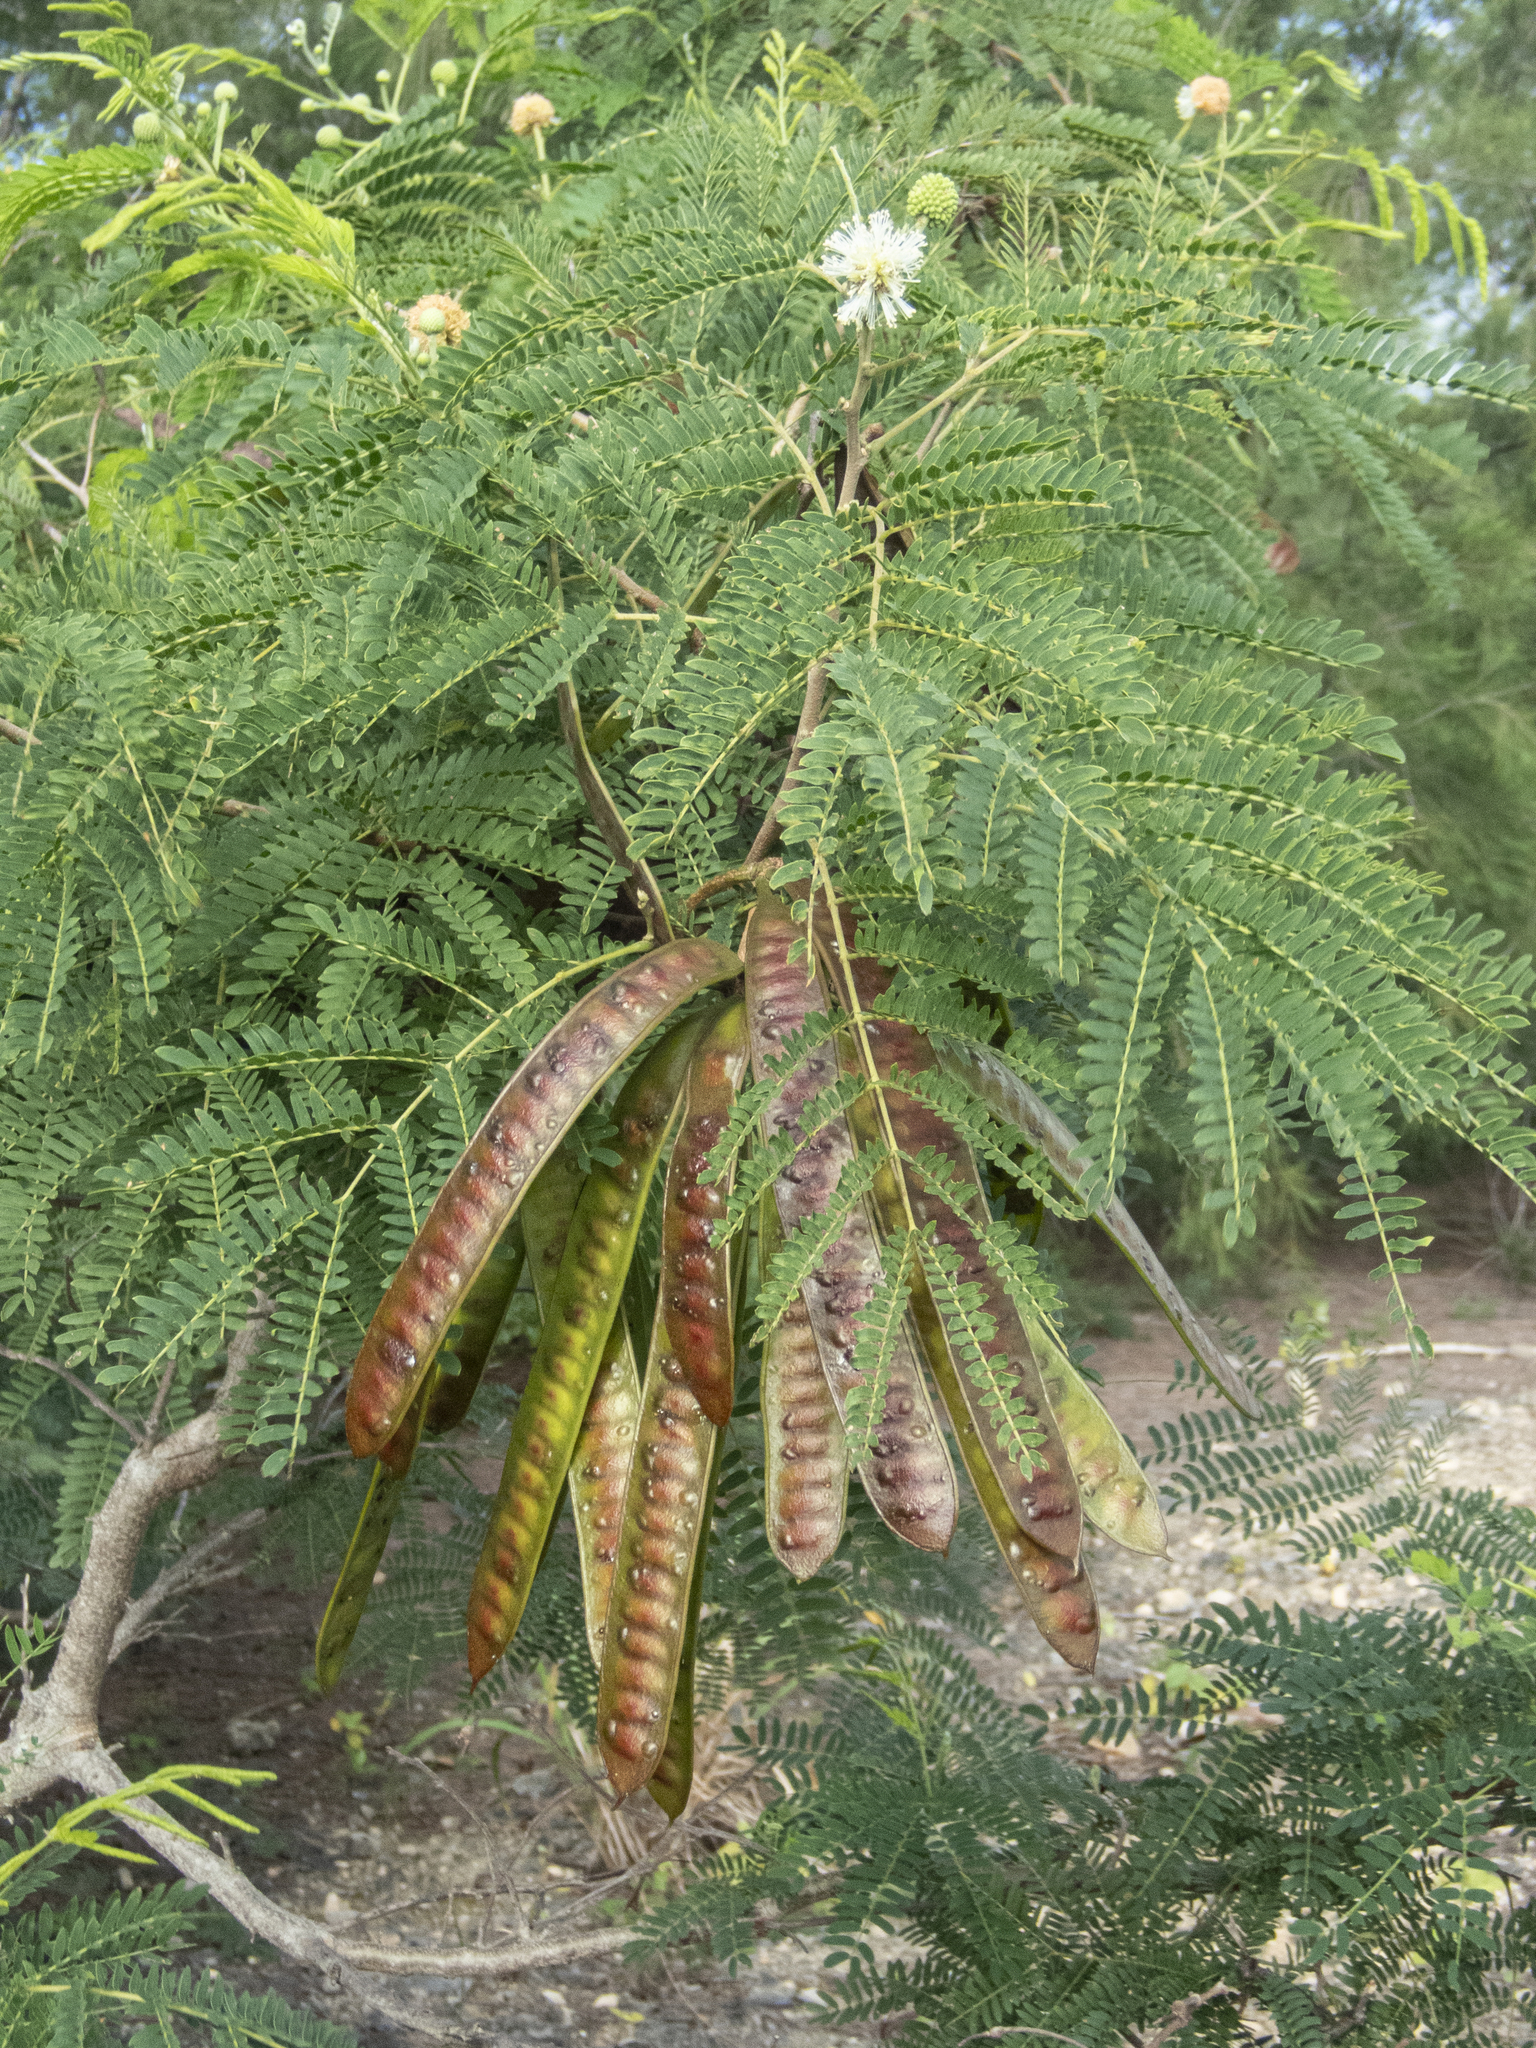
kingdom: Plantae
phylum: Tracheophyta
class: Magnoliopsida
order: Fabales
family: Fabaceae
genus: Leucaena
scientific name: Leucaena leucocephala
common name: White leadtree
